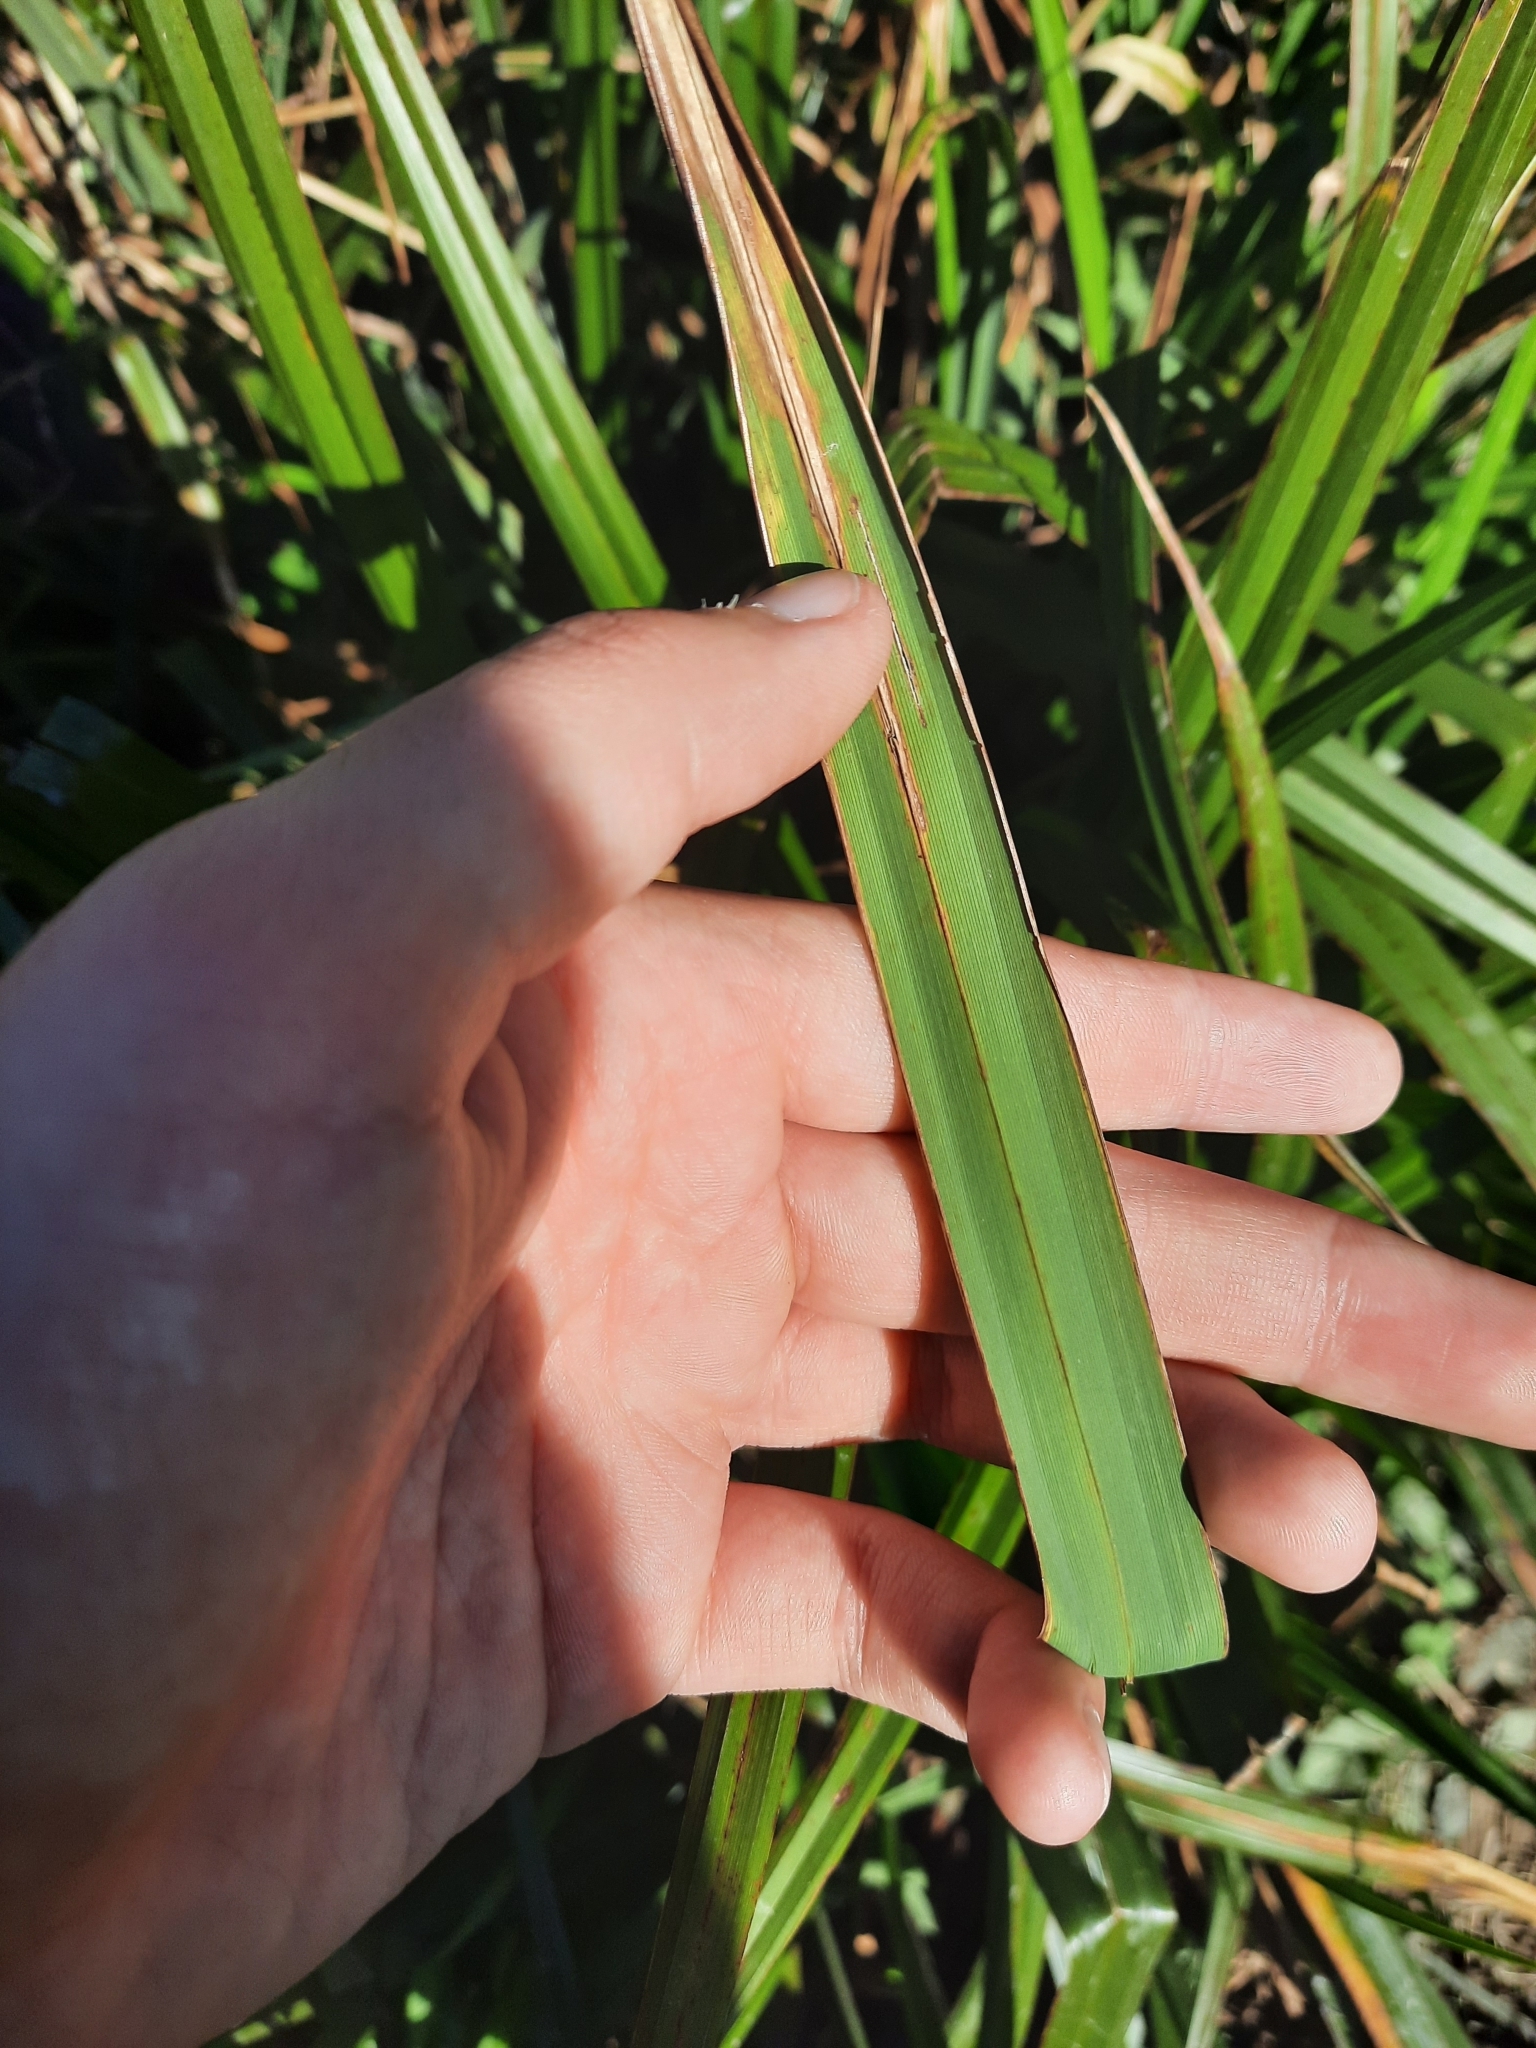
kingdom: Plantae
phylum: Tracheophyta
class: Liliopsida
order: Poales
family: Cyperaceae
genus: Carex
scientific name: Carex pendula
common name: Pendulous sedge
